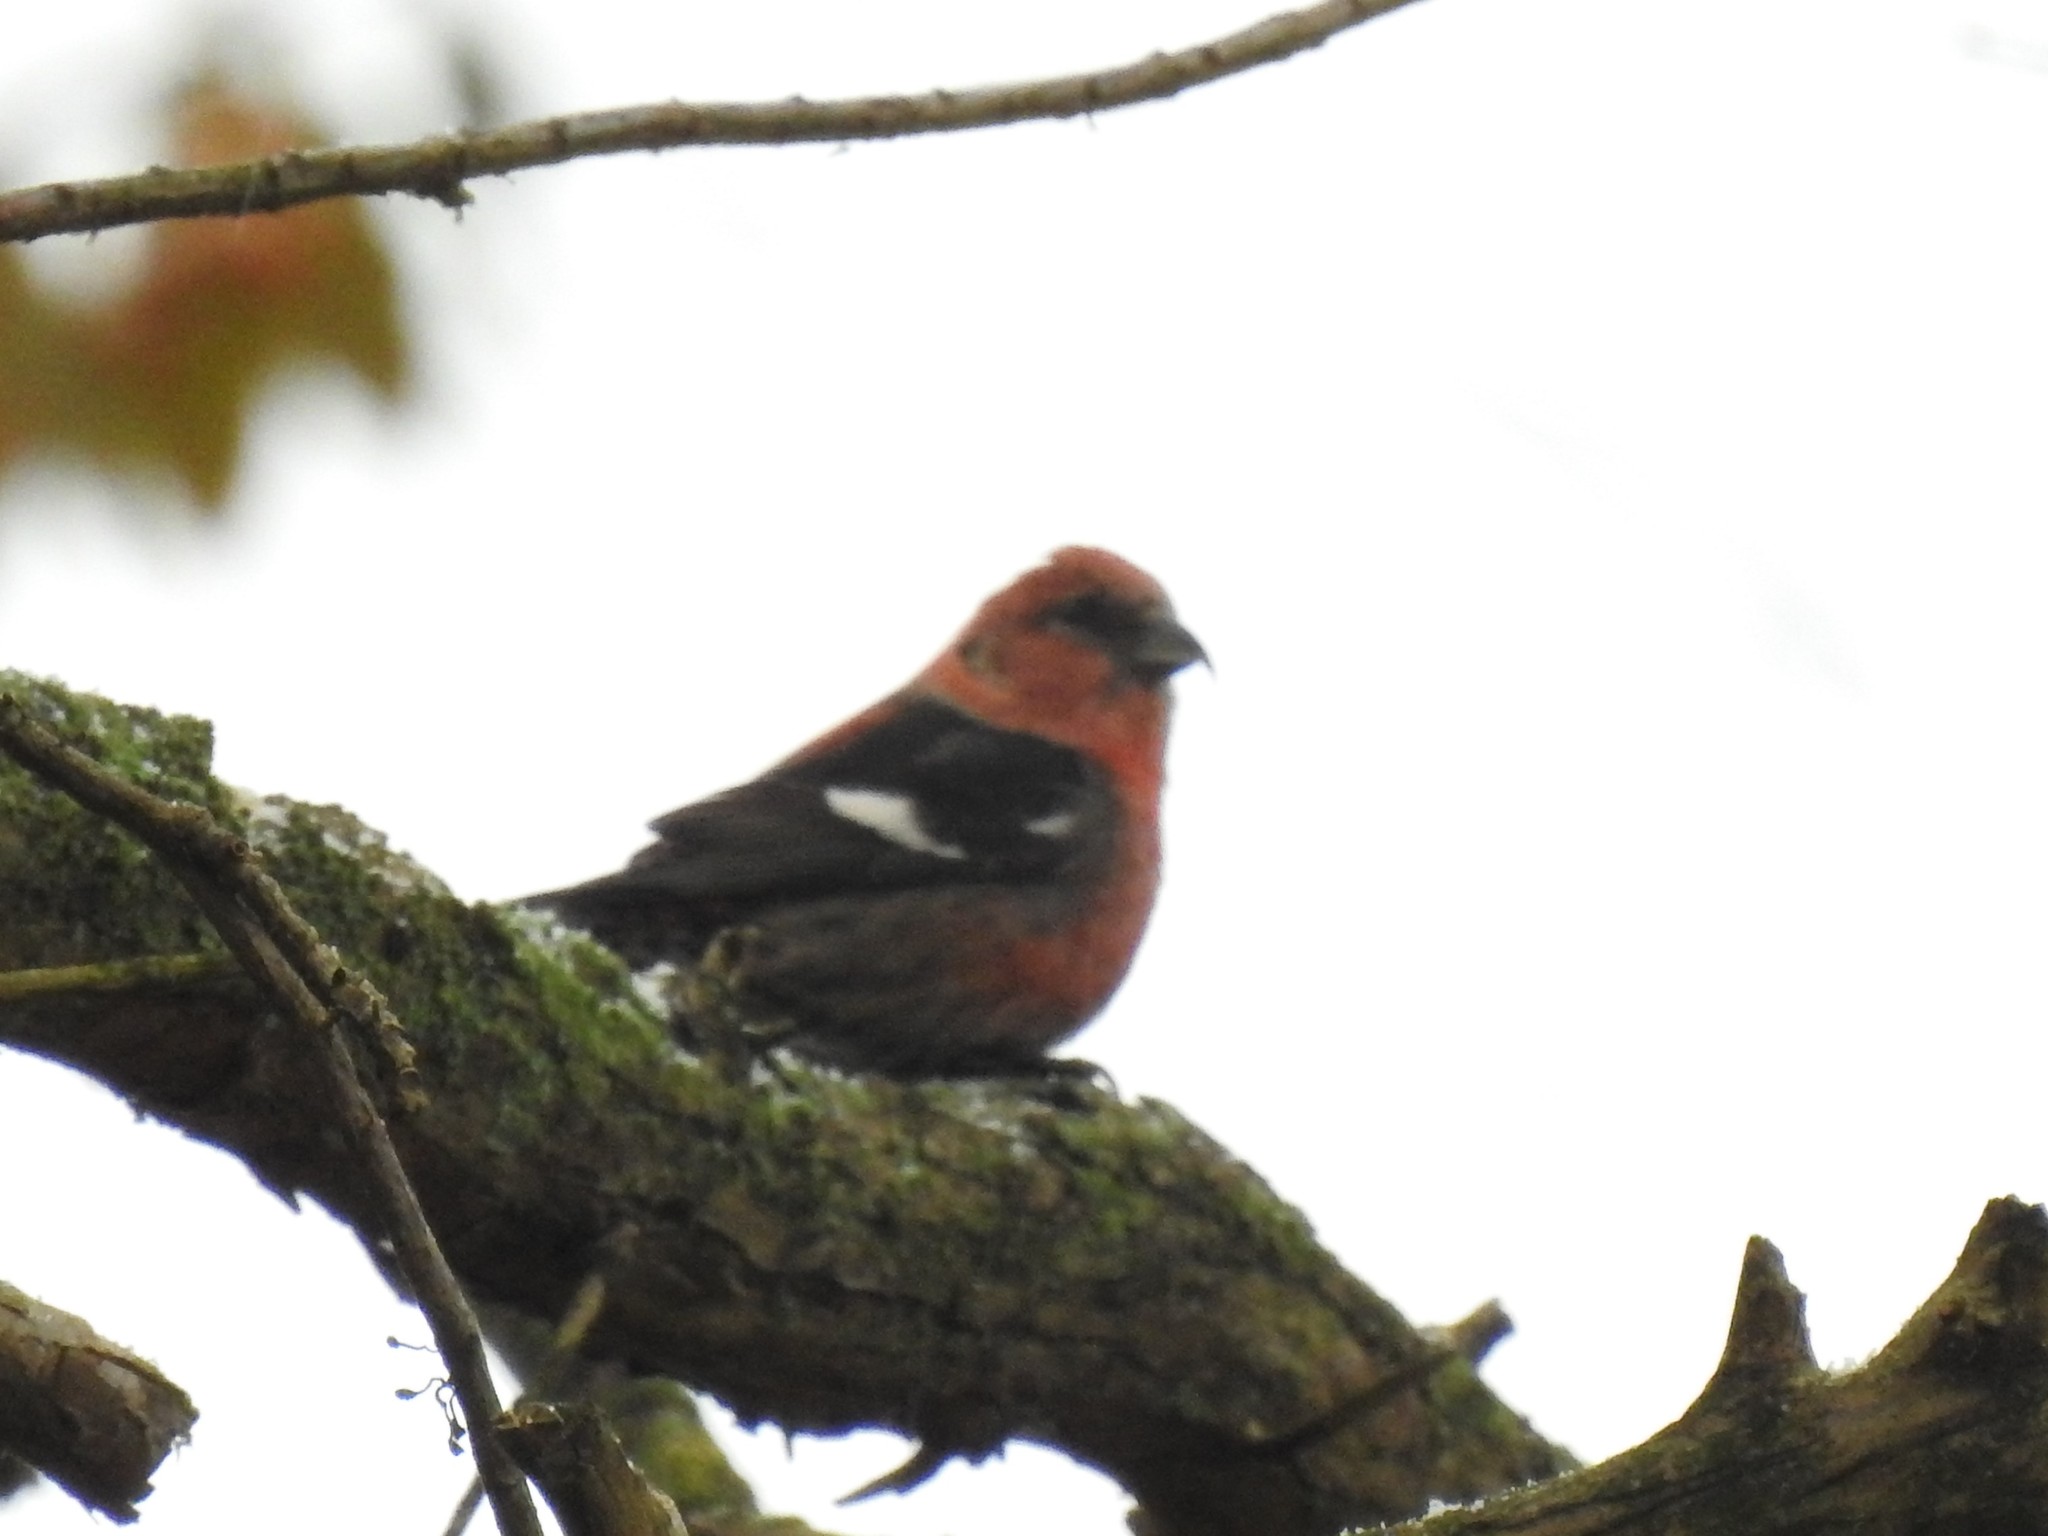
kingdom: Animalia
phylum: Chordata
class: Aves
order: Passeriformes
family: Fringillidae
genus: Loxia
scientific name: Loxia leucoptera
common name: Two-barred crossbill
